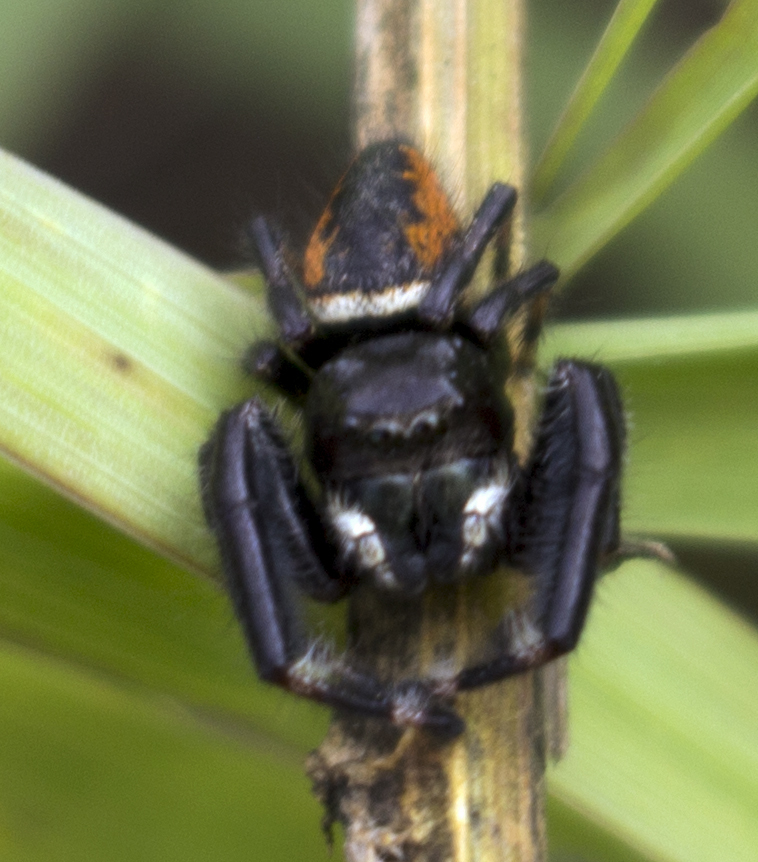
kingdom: Animalia
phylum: Arthropoda
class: Arachnida
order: Araneae
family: Salticidae
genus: Phidippus
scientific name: Phidippus clarus
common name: Brilliant jumping spider
